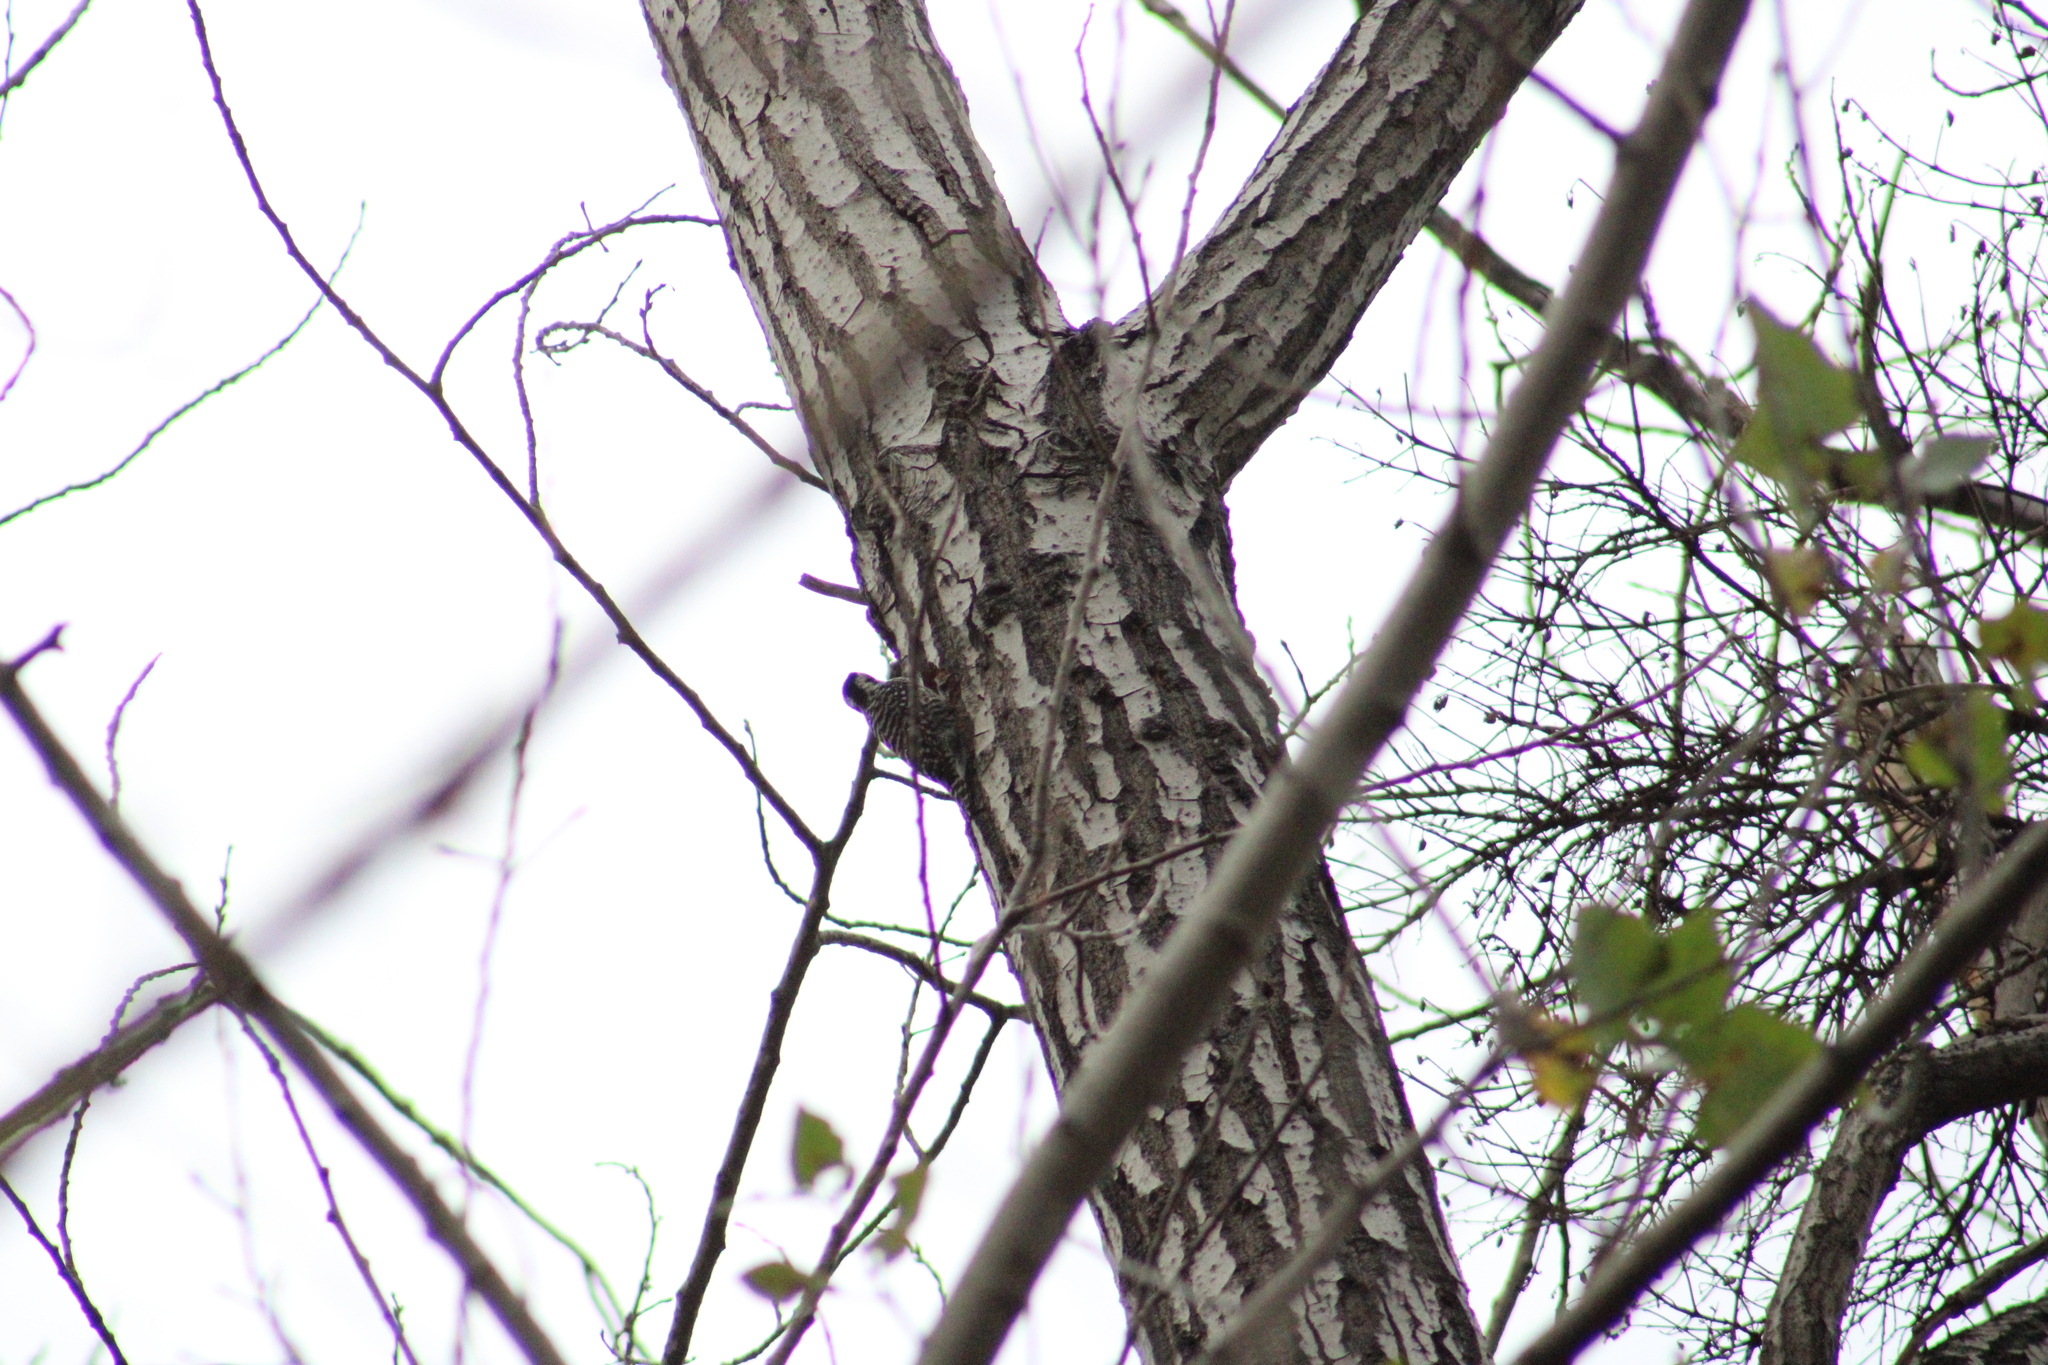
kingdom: Animalia
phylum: Chordata
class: Aves
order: Piciformes
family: Picidae
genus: Veniliornis
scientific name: Veniliornis lignarius
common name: Striped woodpecker
